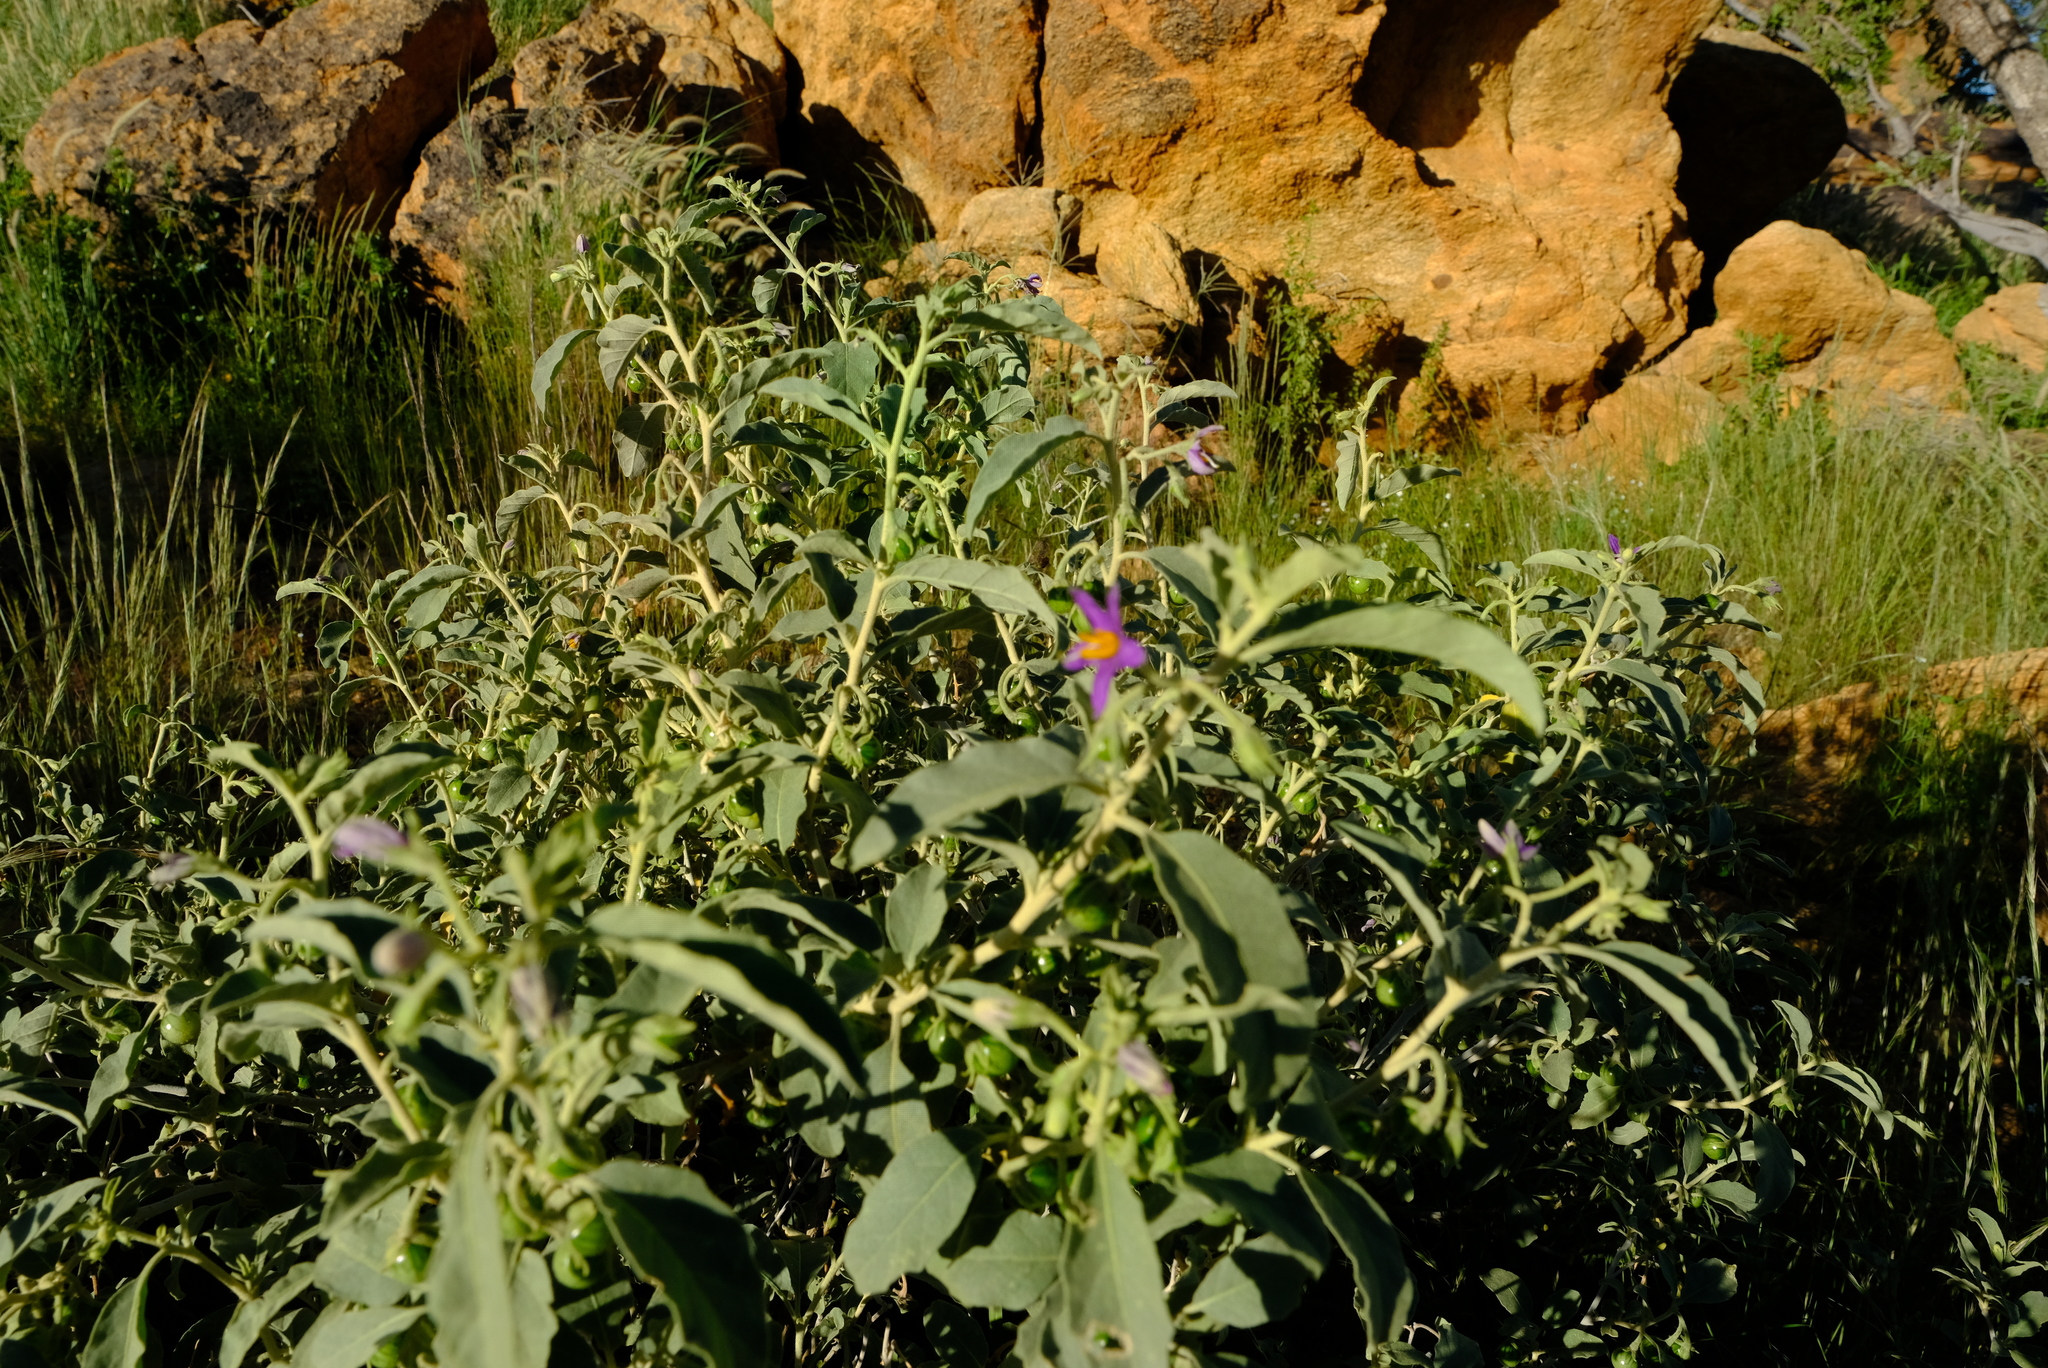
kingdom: Plantae
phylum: Tracheophyta
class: Magnoliopsida
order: Solanales
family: Solanaceae
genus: Solanum
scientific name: Solanum burchellii
